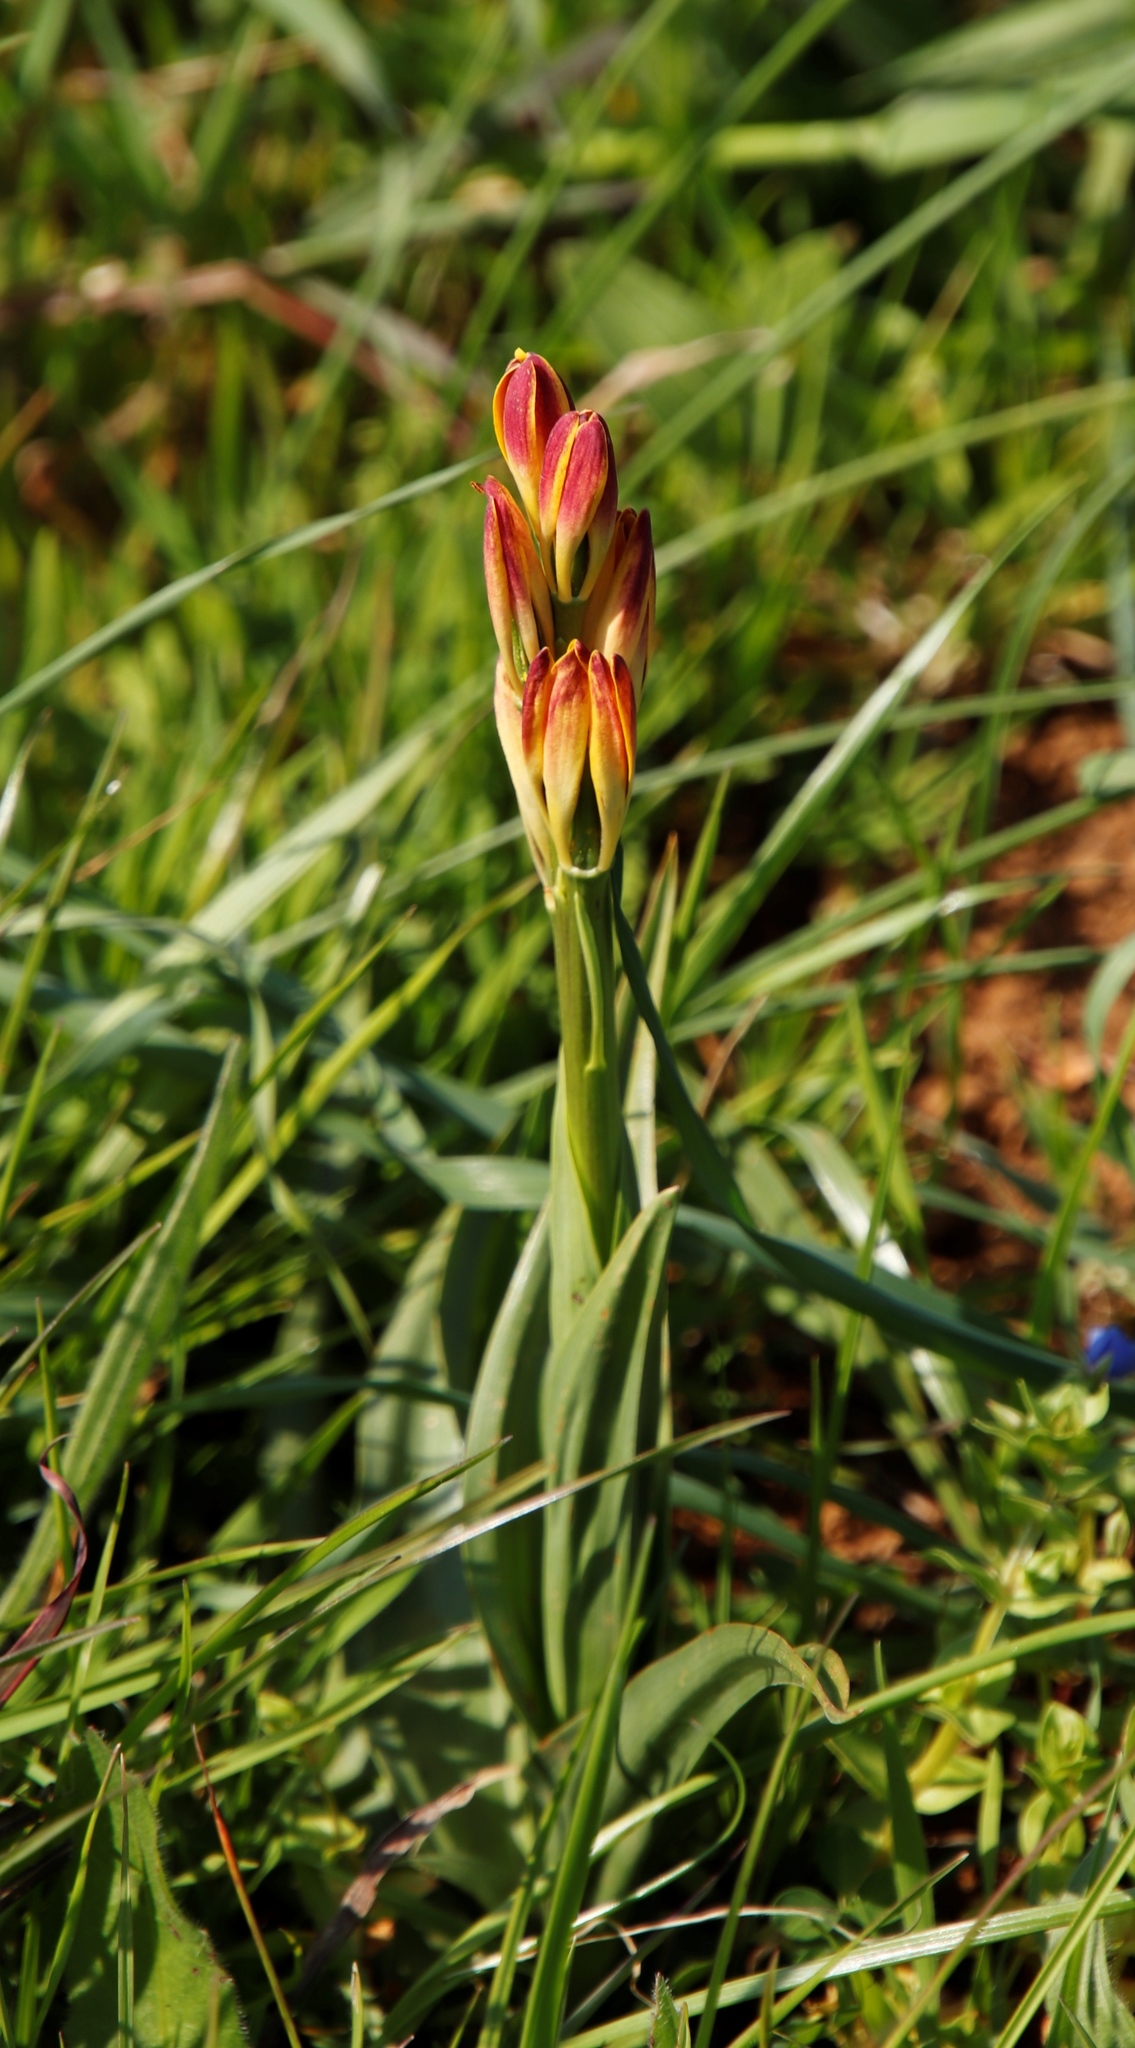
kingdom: Plantae
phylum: Tracheophyta
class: Liliopsida
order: Liliales
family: Colchicaceae
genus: Baeometra
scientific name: Baeometra uniflora
